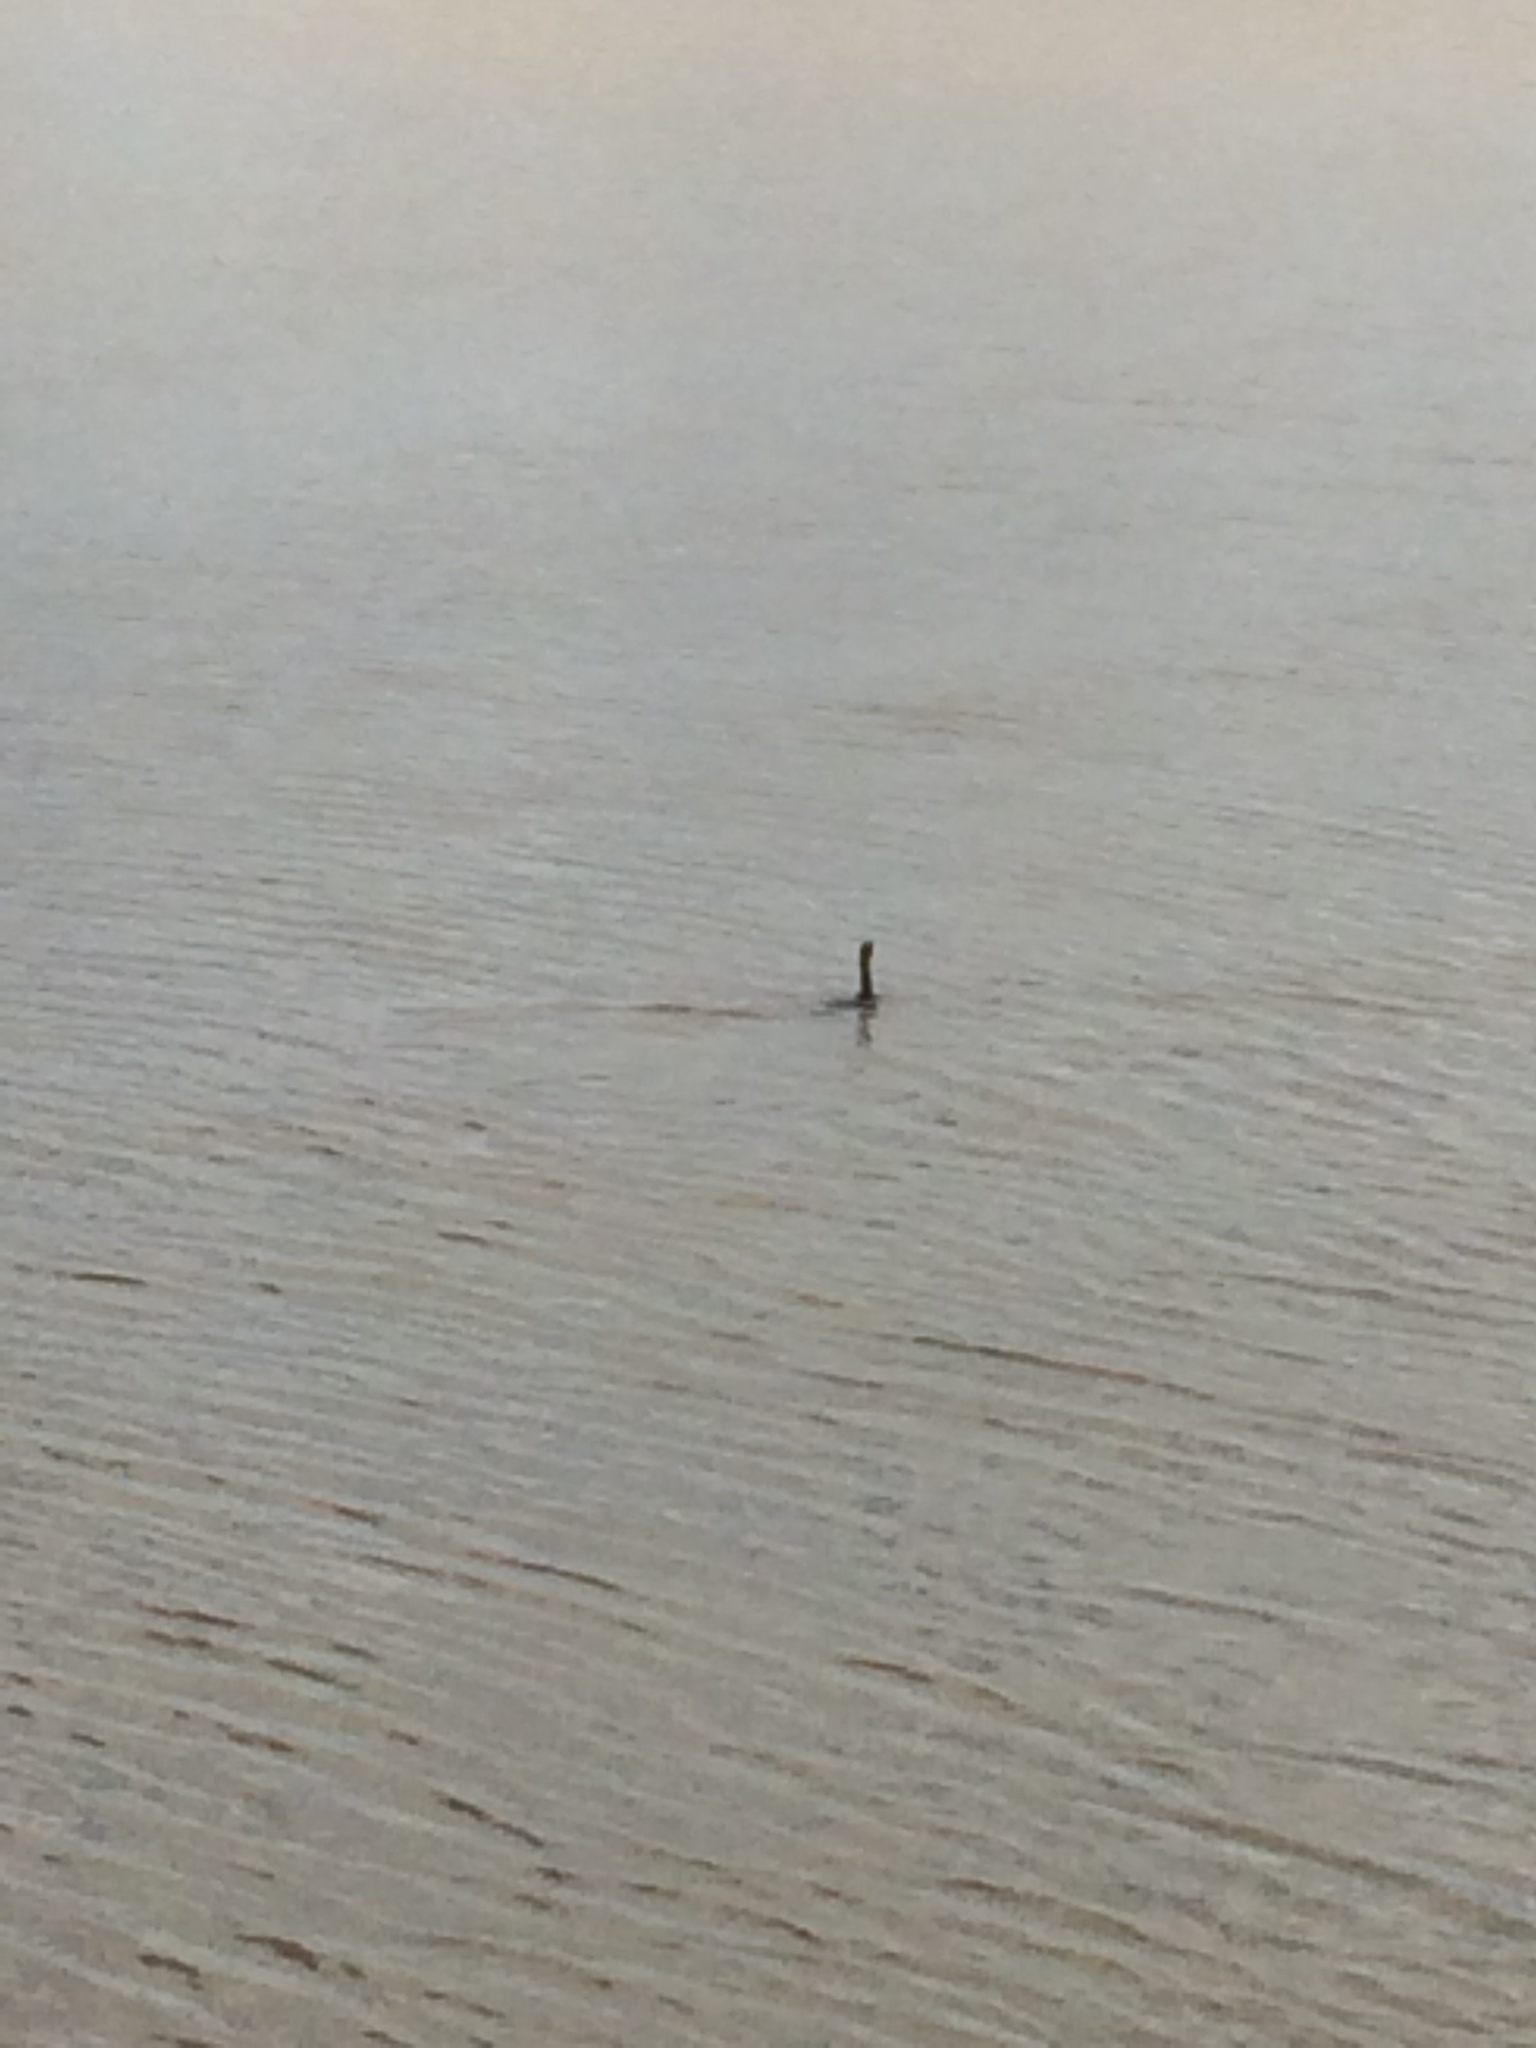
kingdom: Animalia
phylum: Chordata
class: Aves
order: Suliformes
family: Phalacrocoracidae
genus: Phalacrocorax
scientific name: Phalacrocorax auritus
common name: Double-crested cormorant
